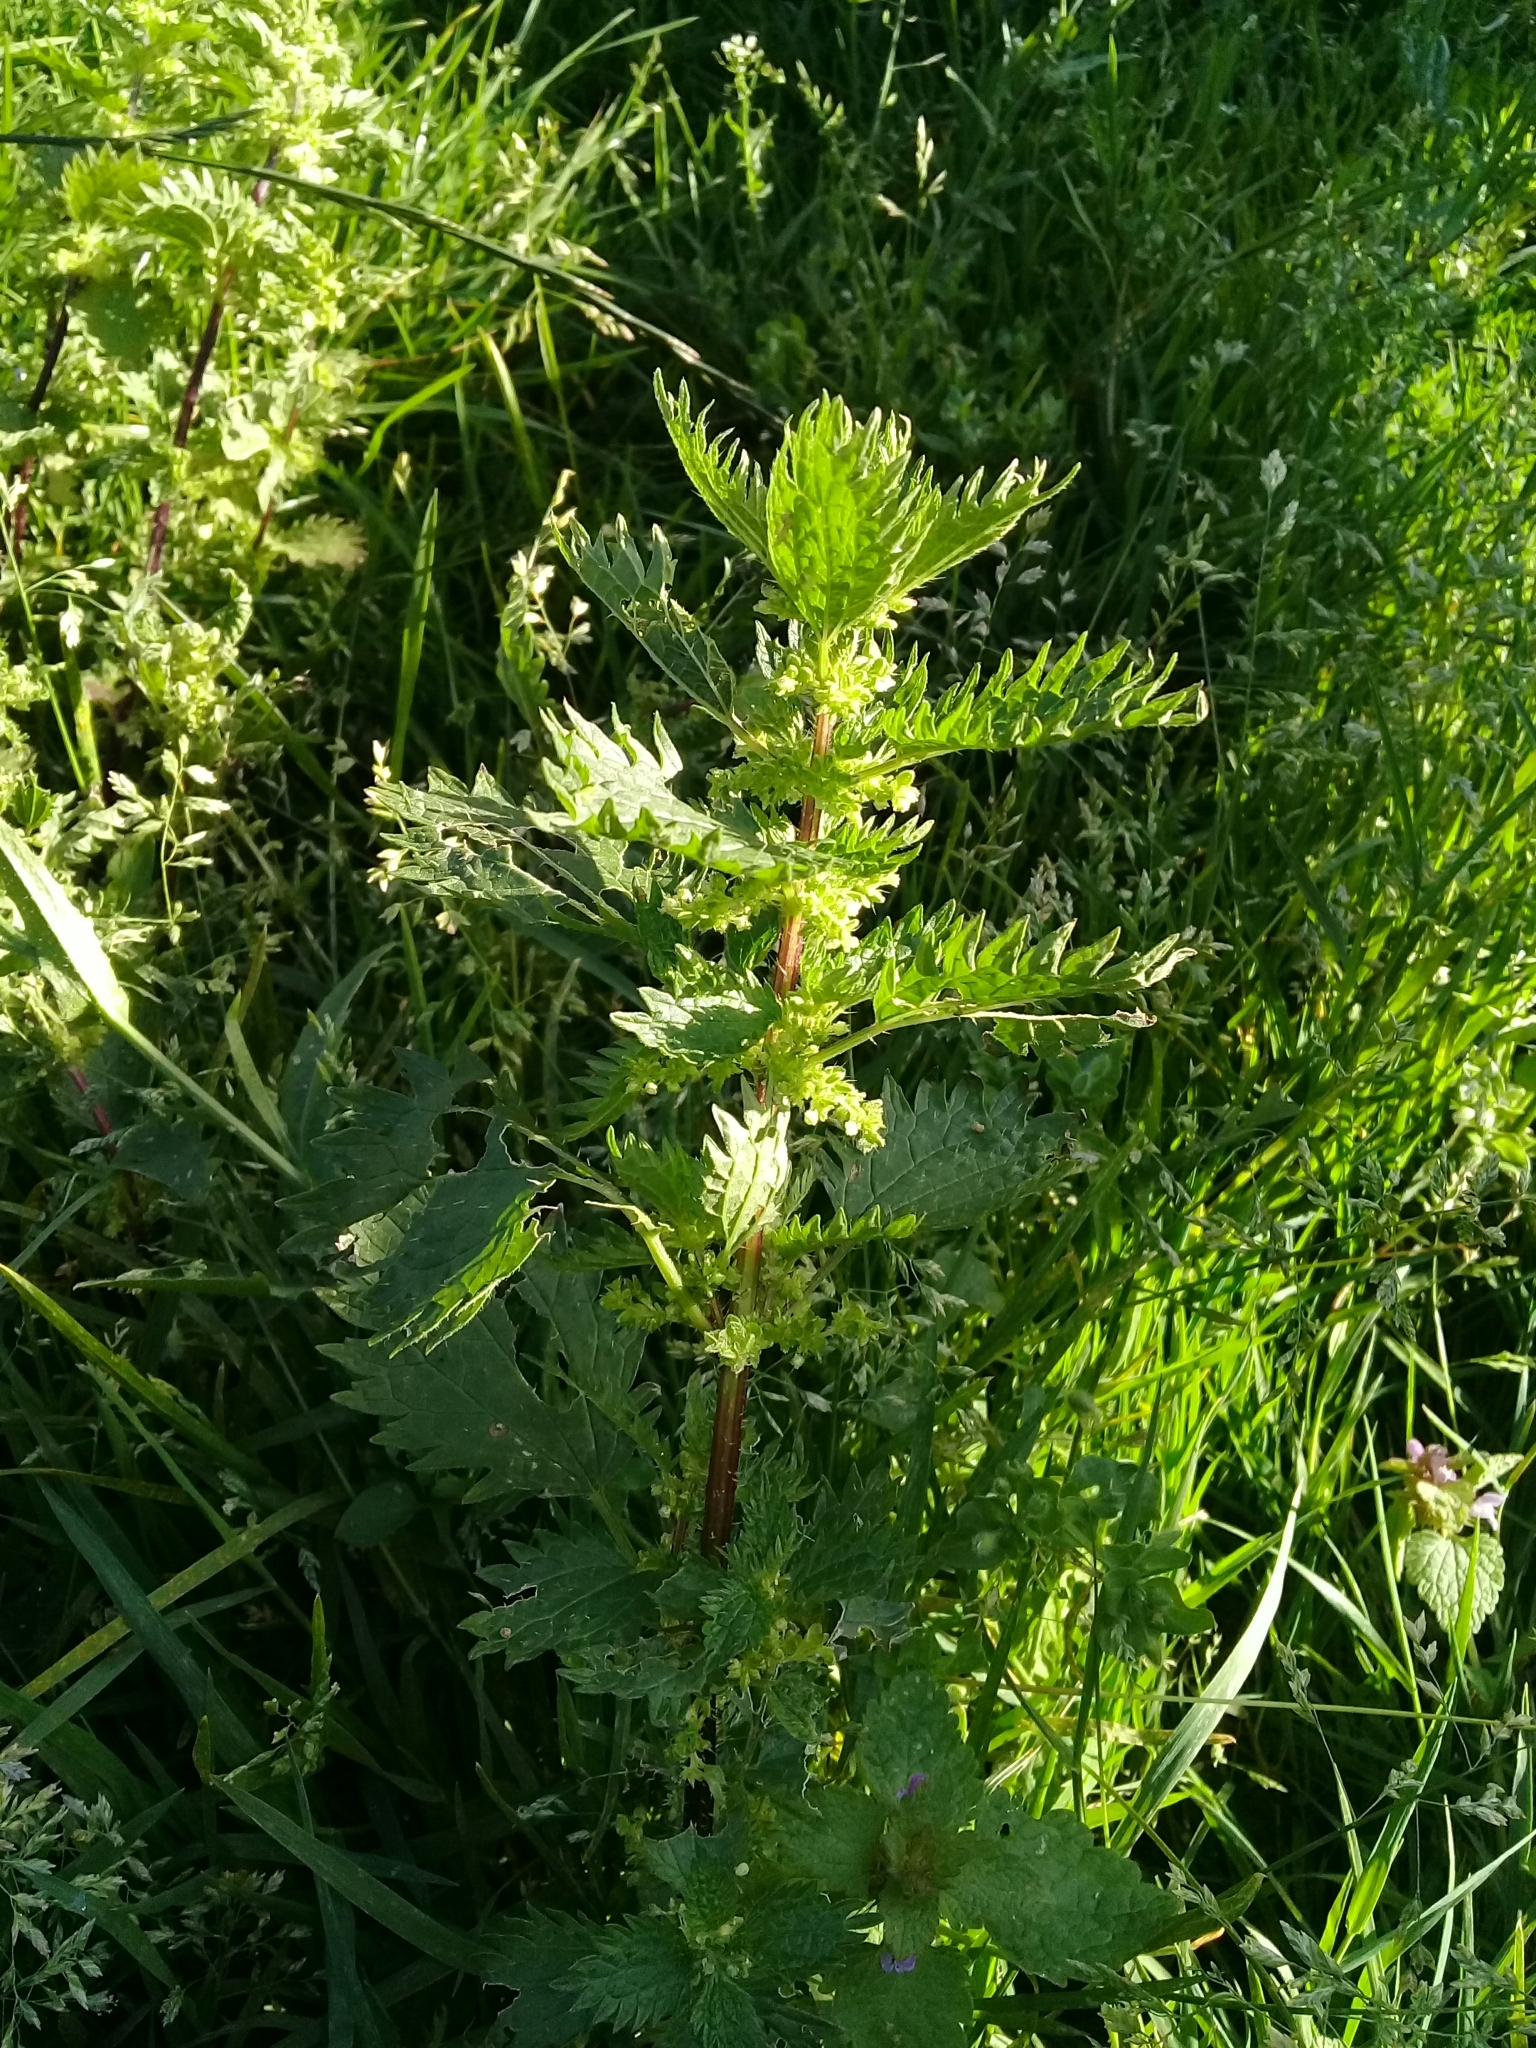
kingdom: Plantae
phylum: Tracheophyta
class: Magnoliopsida
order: Rosales
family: Urticaceae
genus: Urtica
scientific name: Urtica urens
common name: Dwarf nettle
